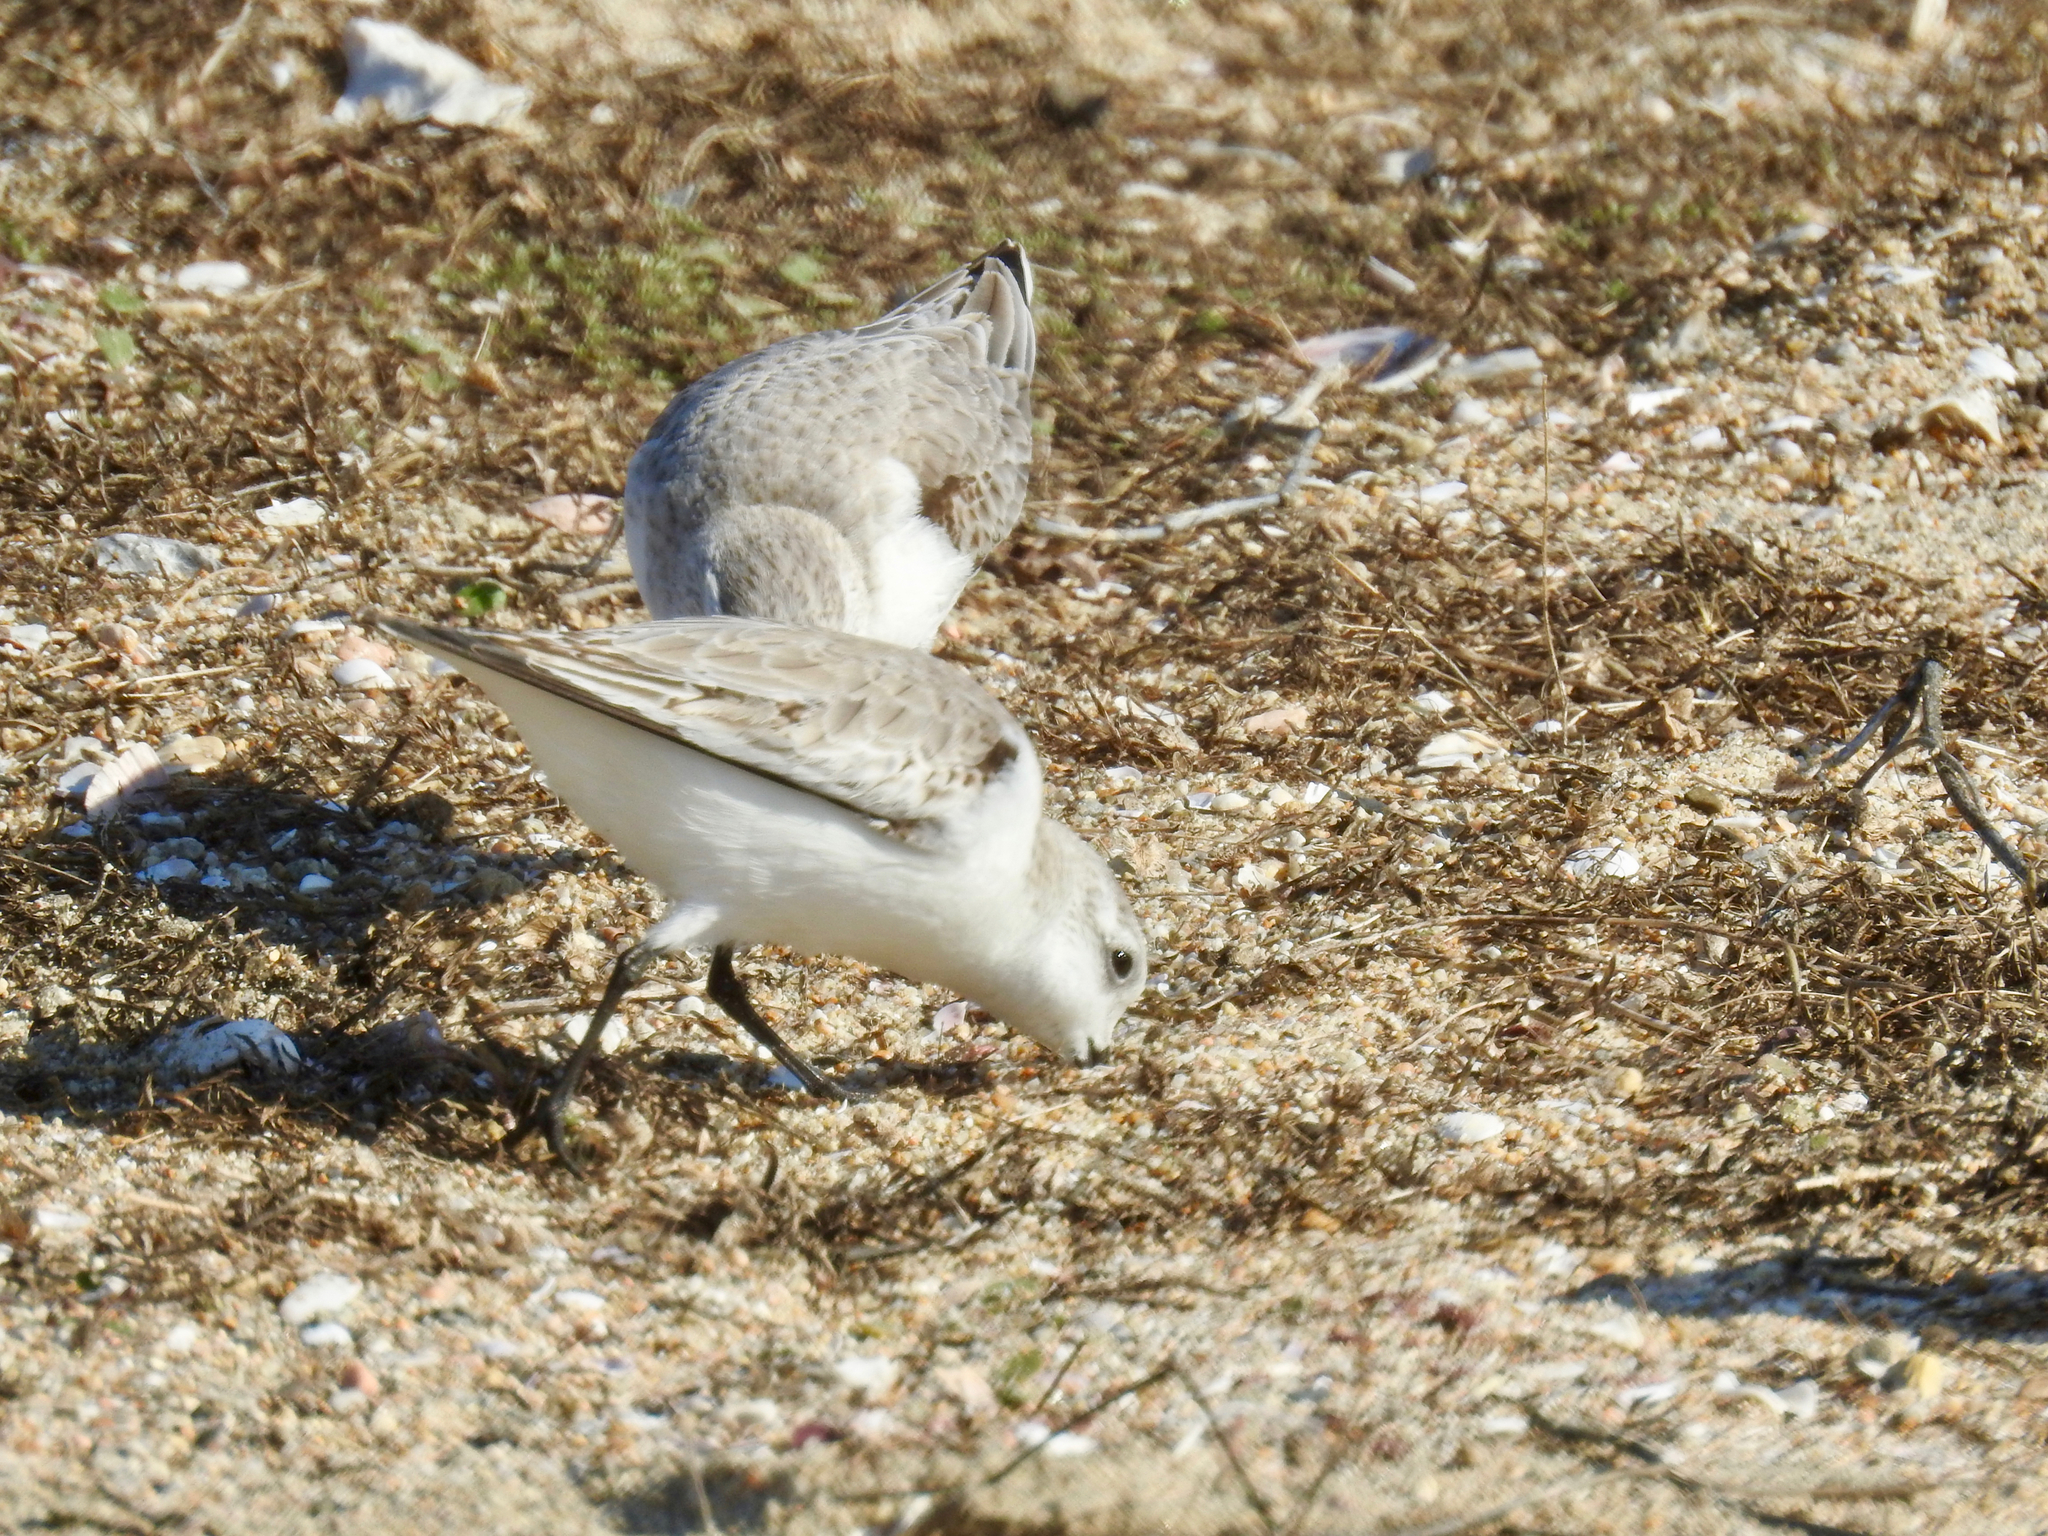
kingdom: Animalia
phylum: Chordata
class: Aves
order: Charadriiformes
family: Scolopacidae
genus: Calidris
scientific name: Calidris alba
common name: Sanderling
